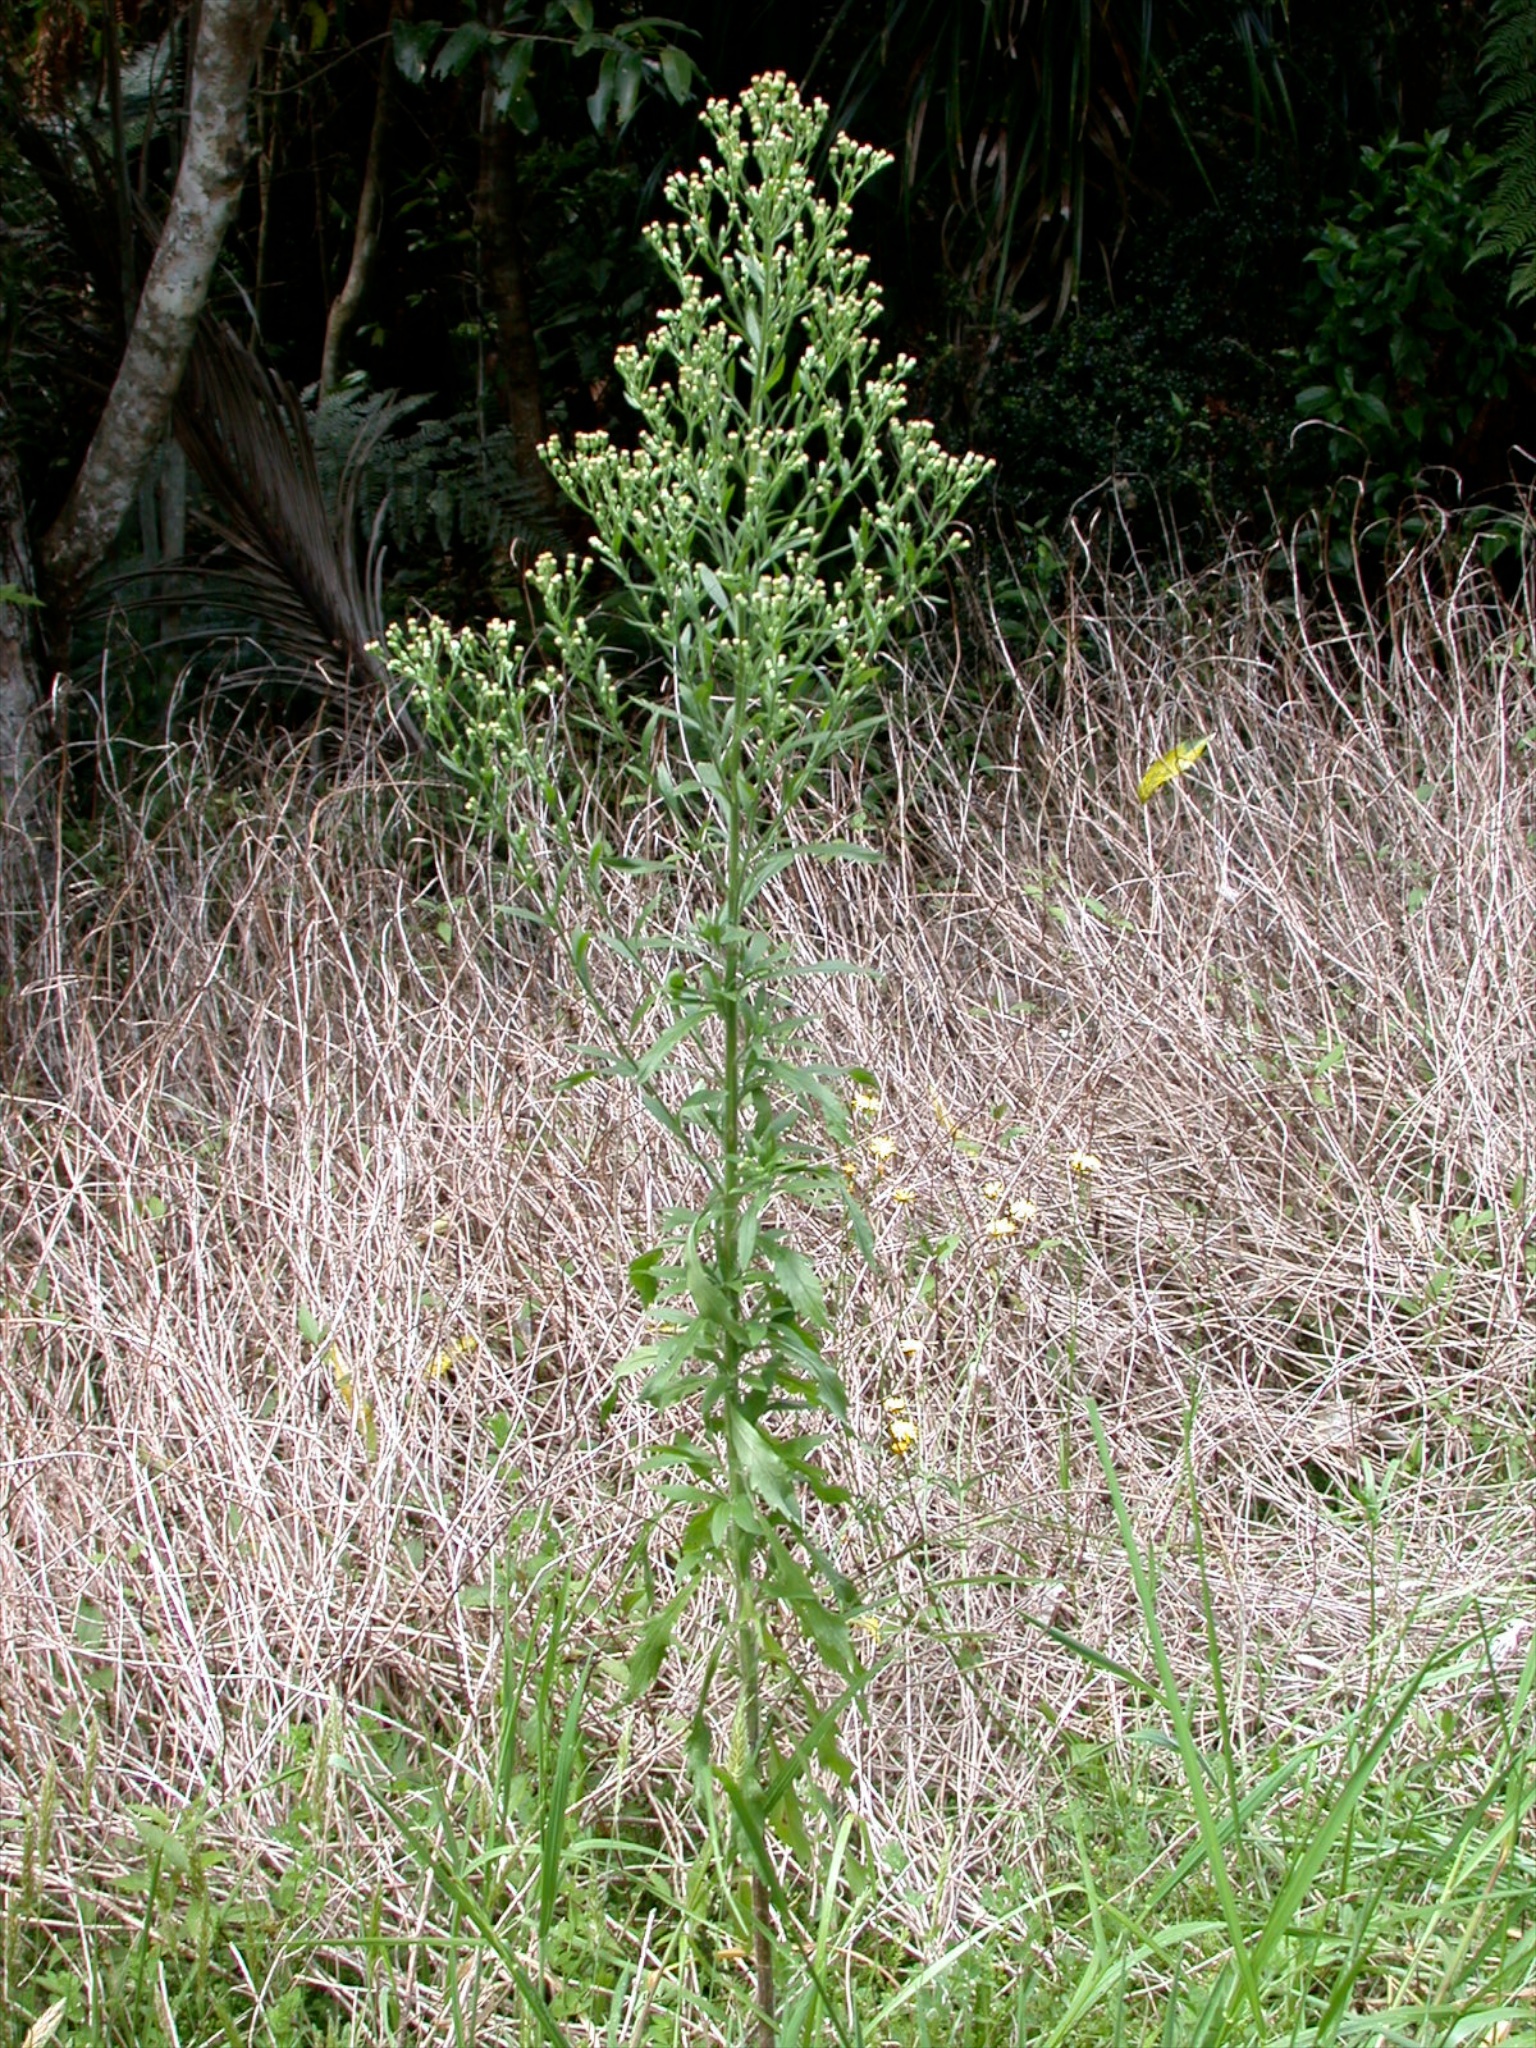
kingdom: Plantae
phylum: Tracheophyta
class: Magnoliopsida
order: Asterales
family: Asteraceae
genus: Erigeron
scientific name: Erigeron sumatrensis
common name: Daisy
